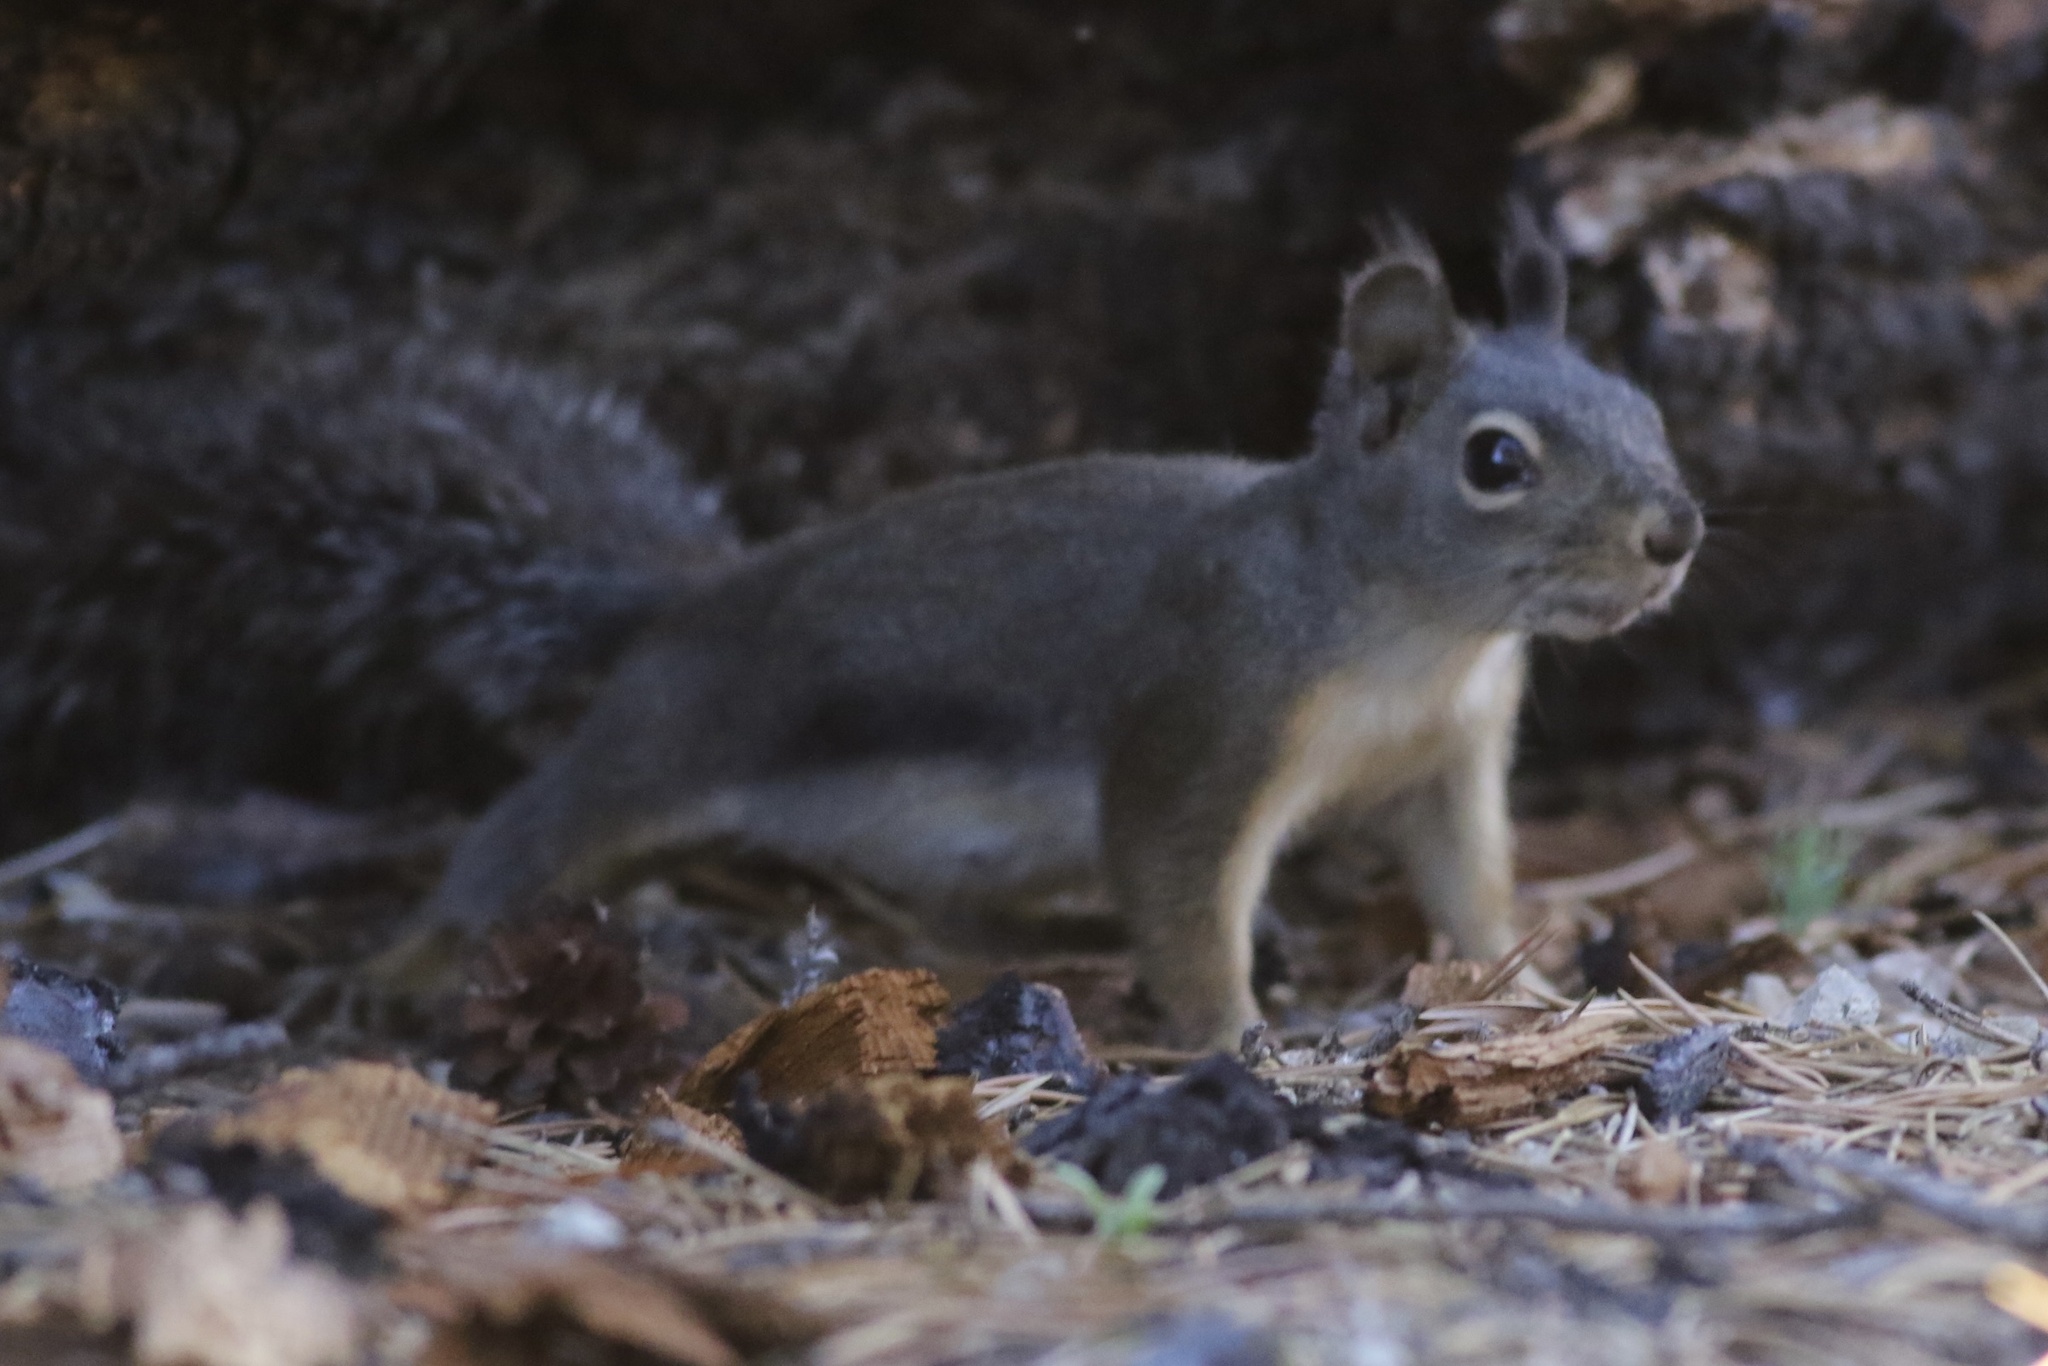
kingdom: Animalia
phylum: Chordata
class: Mammalia
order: Rodentia
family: Sciuridae
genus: Tamiasciurus
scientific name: Tamiasciurus douglasii
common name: Douglas's squirrel
